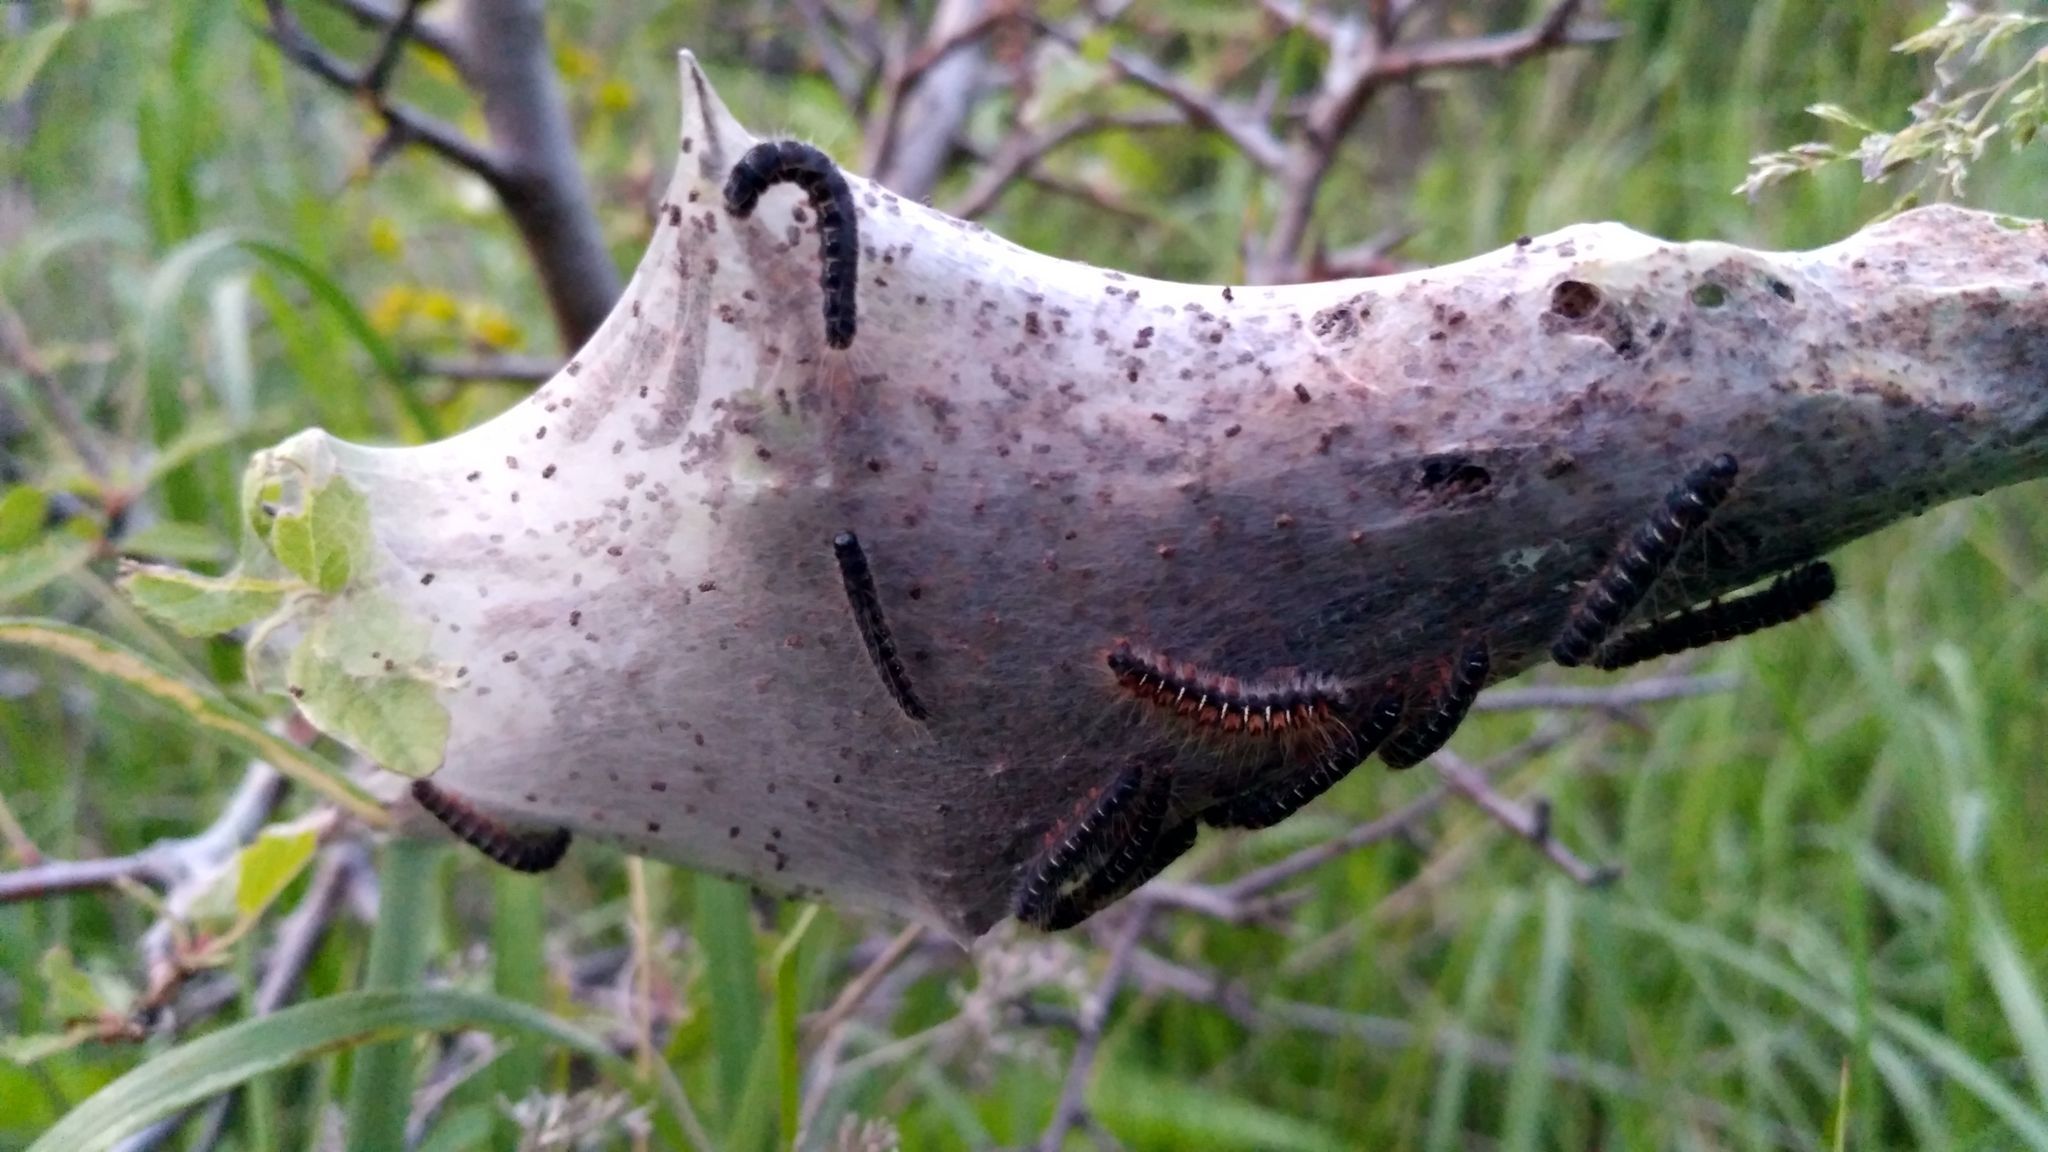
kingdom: Animalia
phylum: Arthropoda
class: Insecta
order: Lepidoptera
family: Lasiocampidae
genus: Eriogaster
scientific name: Eriogaster lanestris
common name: Small eggar
